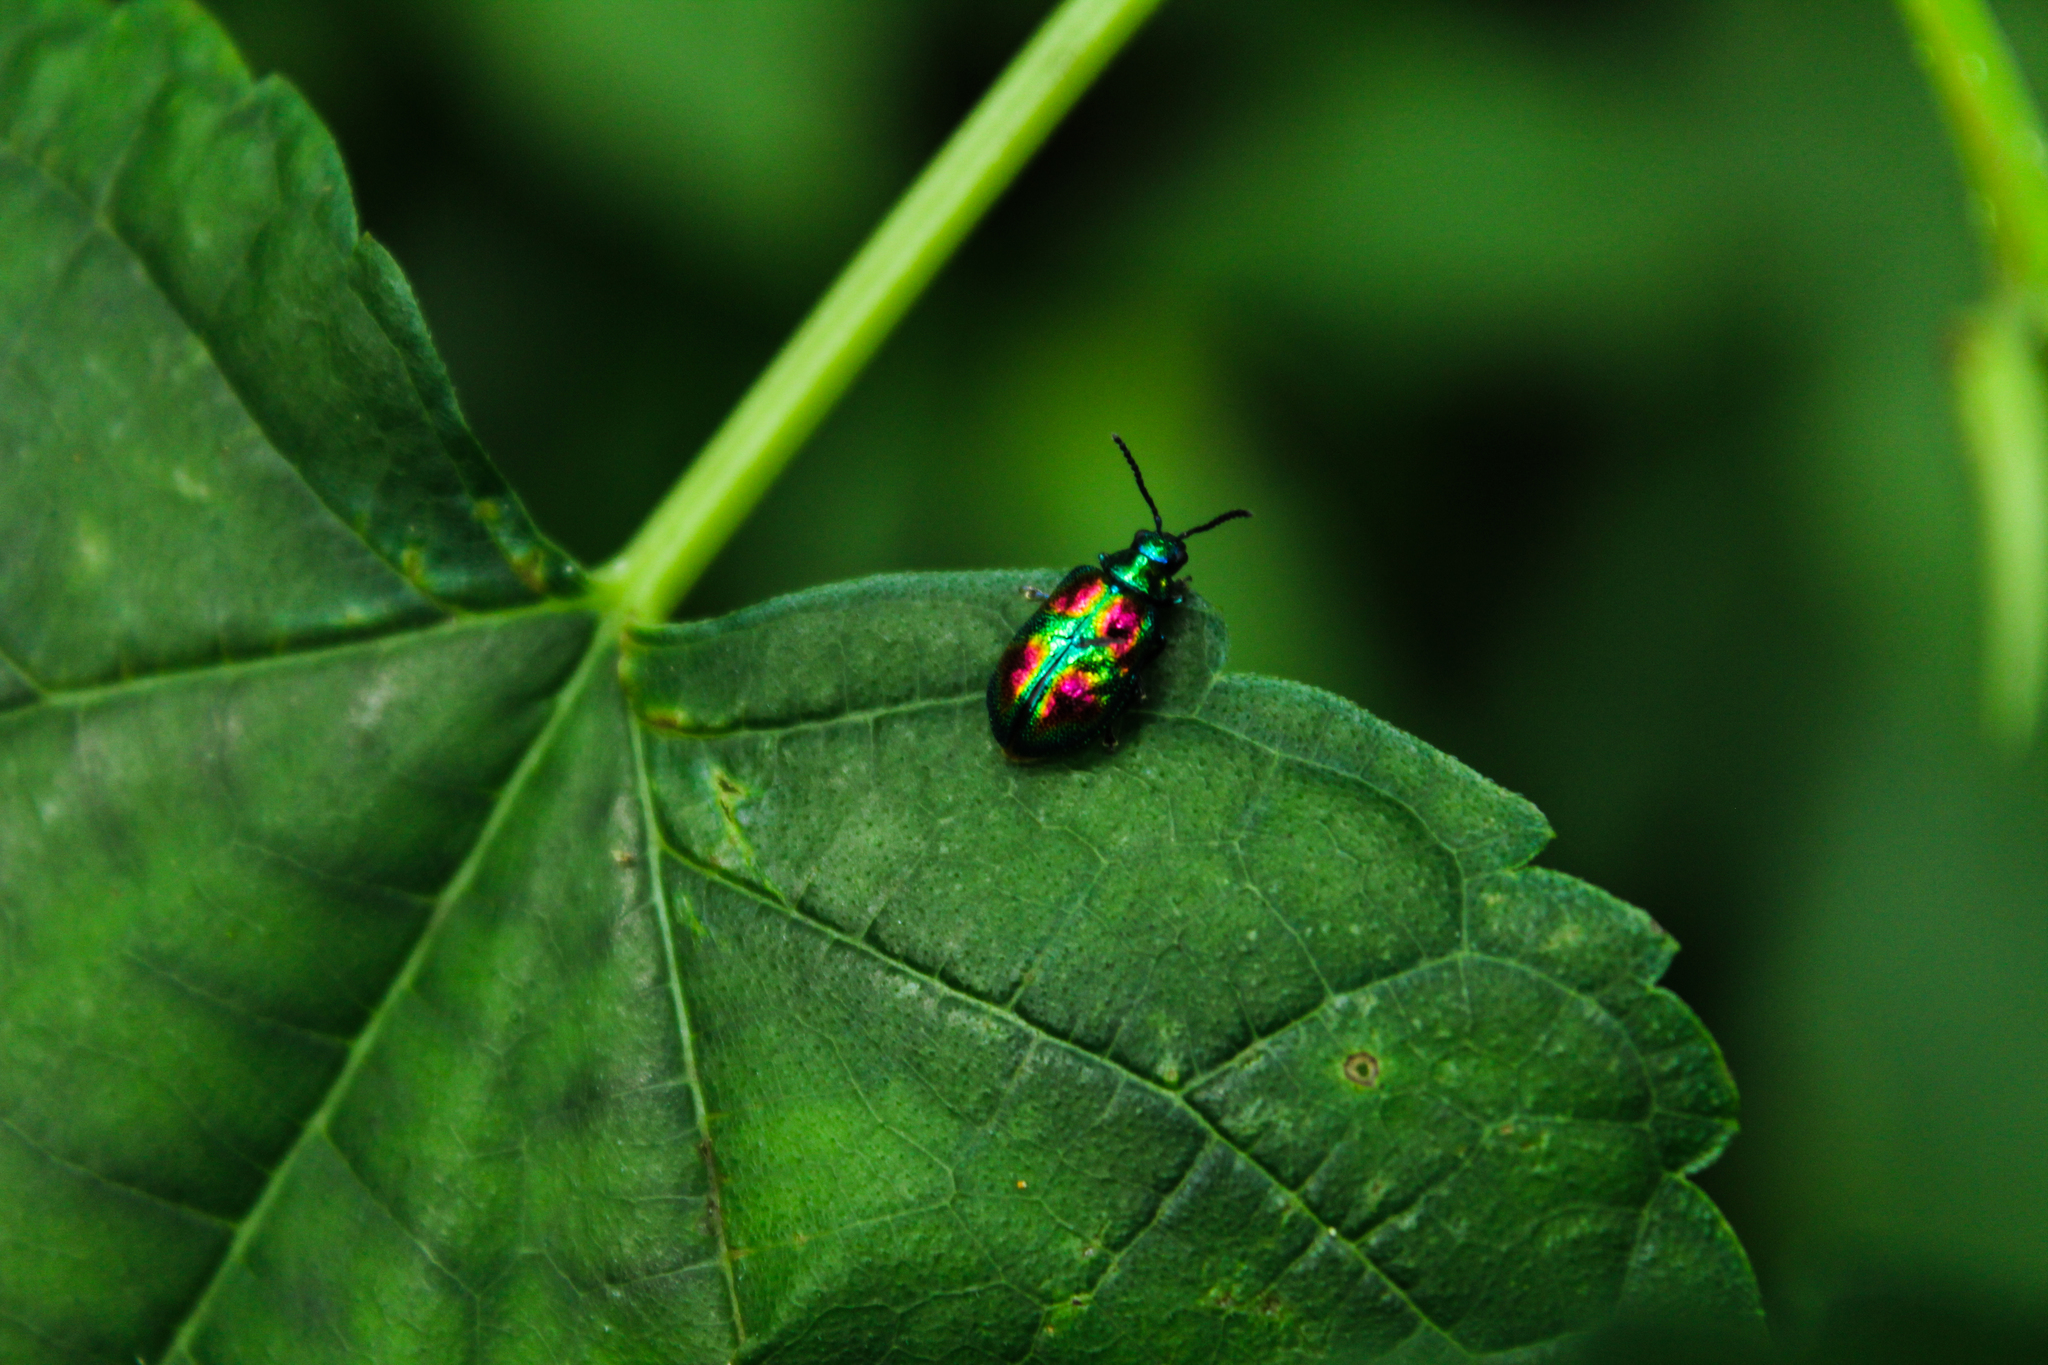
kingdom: Animalia
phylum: Arthropoda
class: Insecta
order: Coleoptera
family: Chrysomelidae
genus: Clitenella
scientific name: Clitenella fulminans
